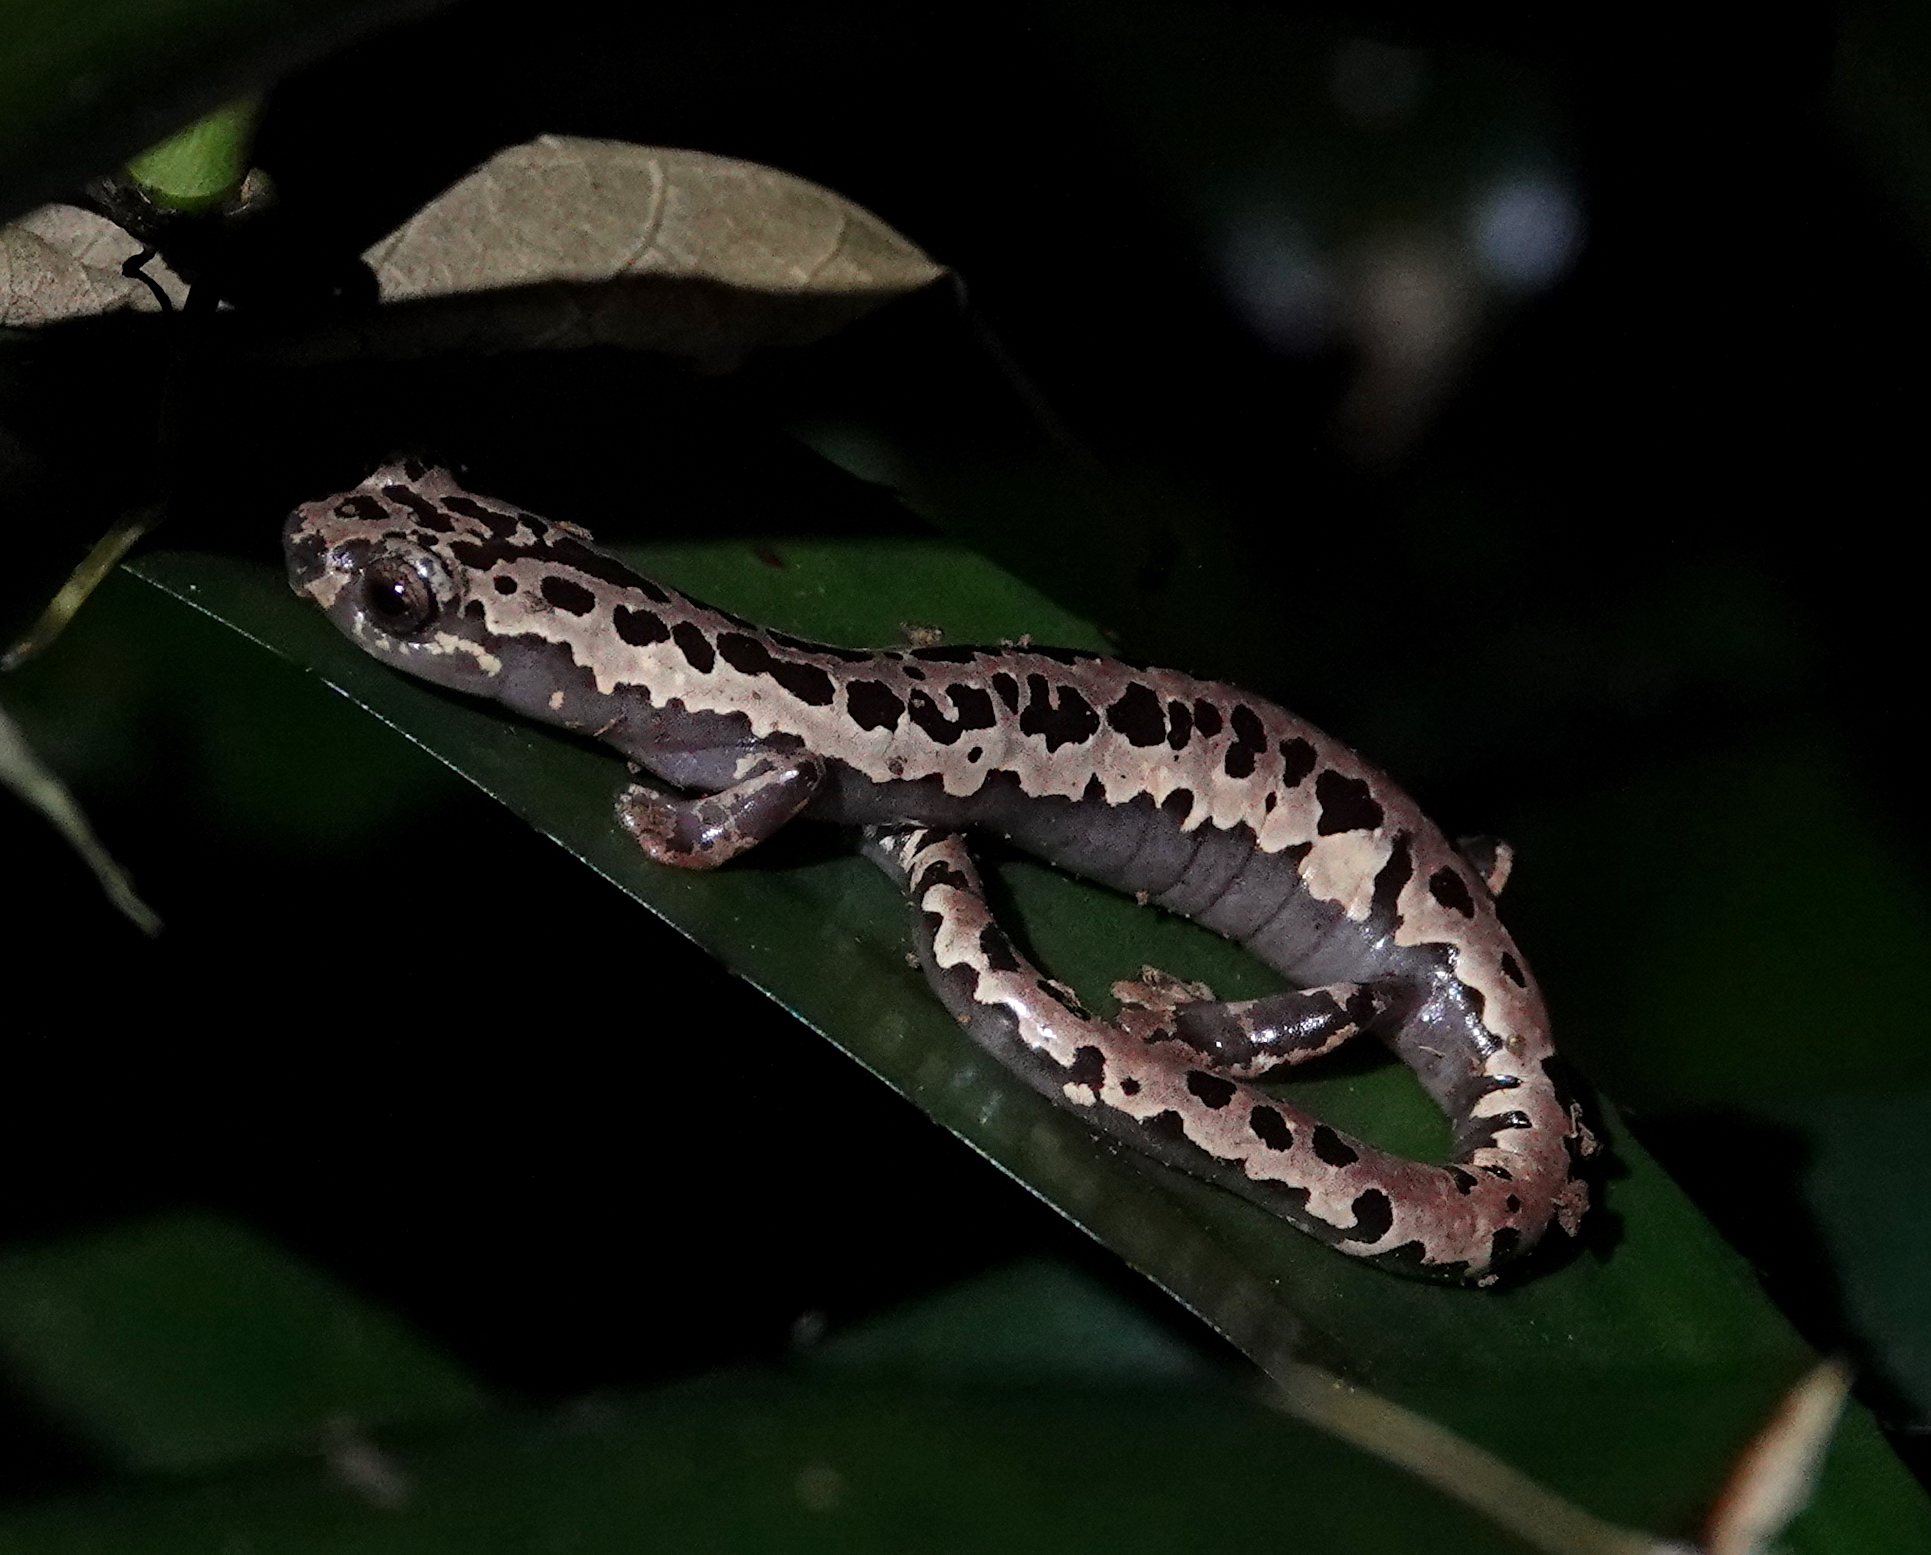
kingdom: Animalia
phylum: Chordata
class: Amphibia
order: Caudata
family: Plethodontidae
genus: Bolitoglossa
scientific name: Bolitoglossa mexicana
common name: Black-and-gold salamander
